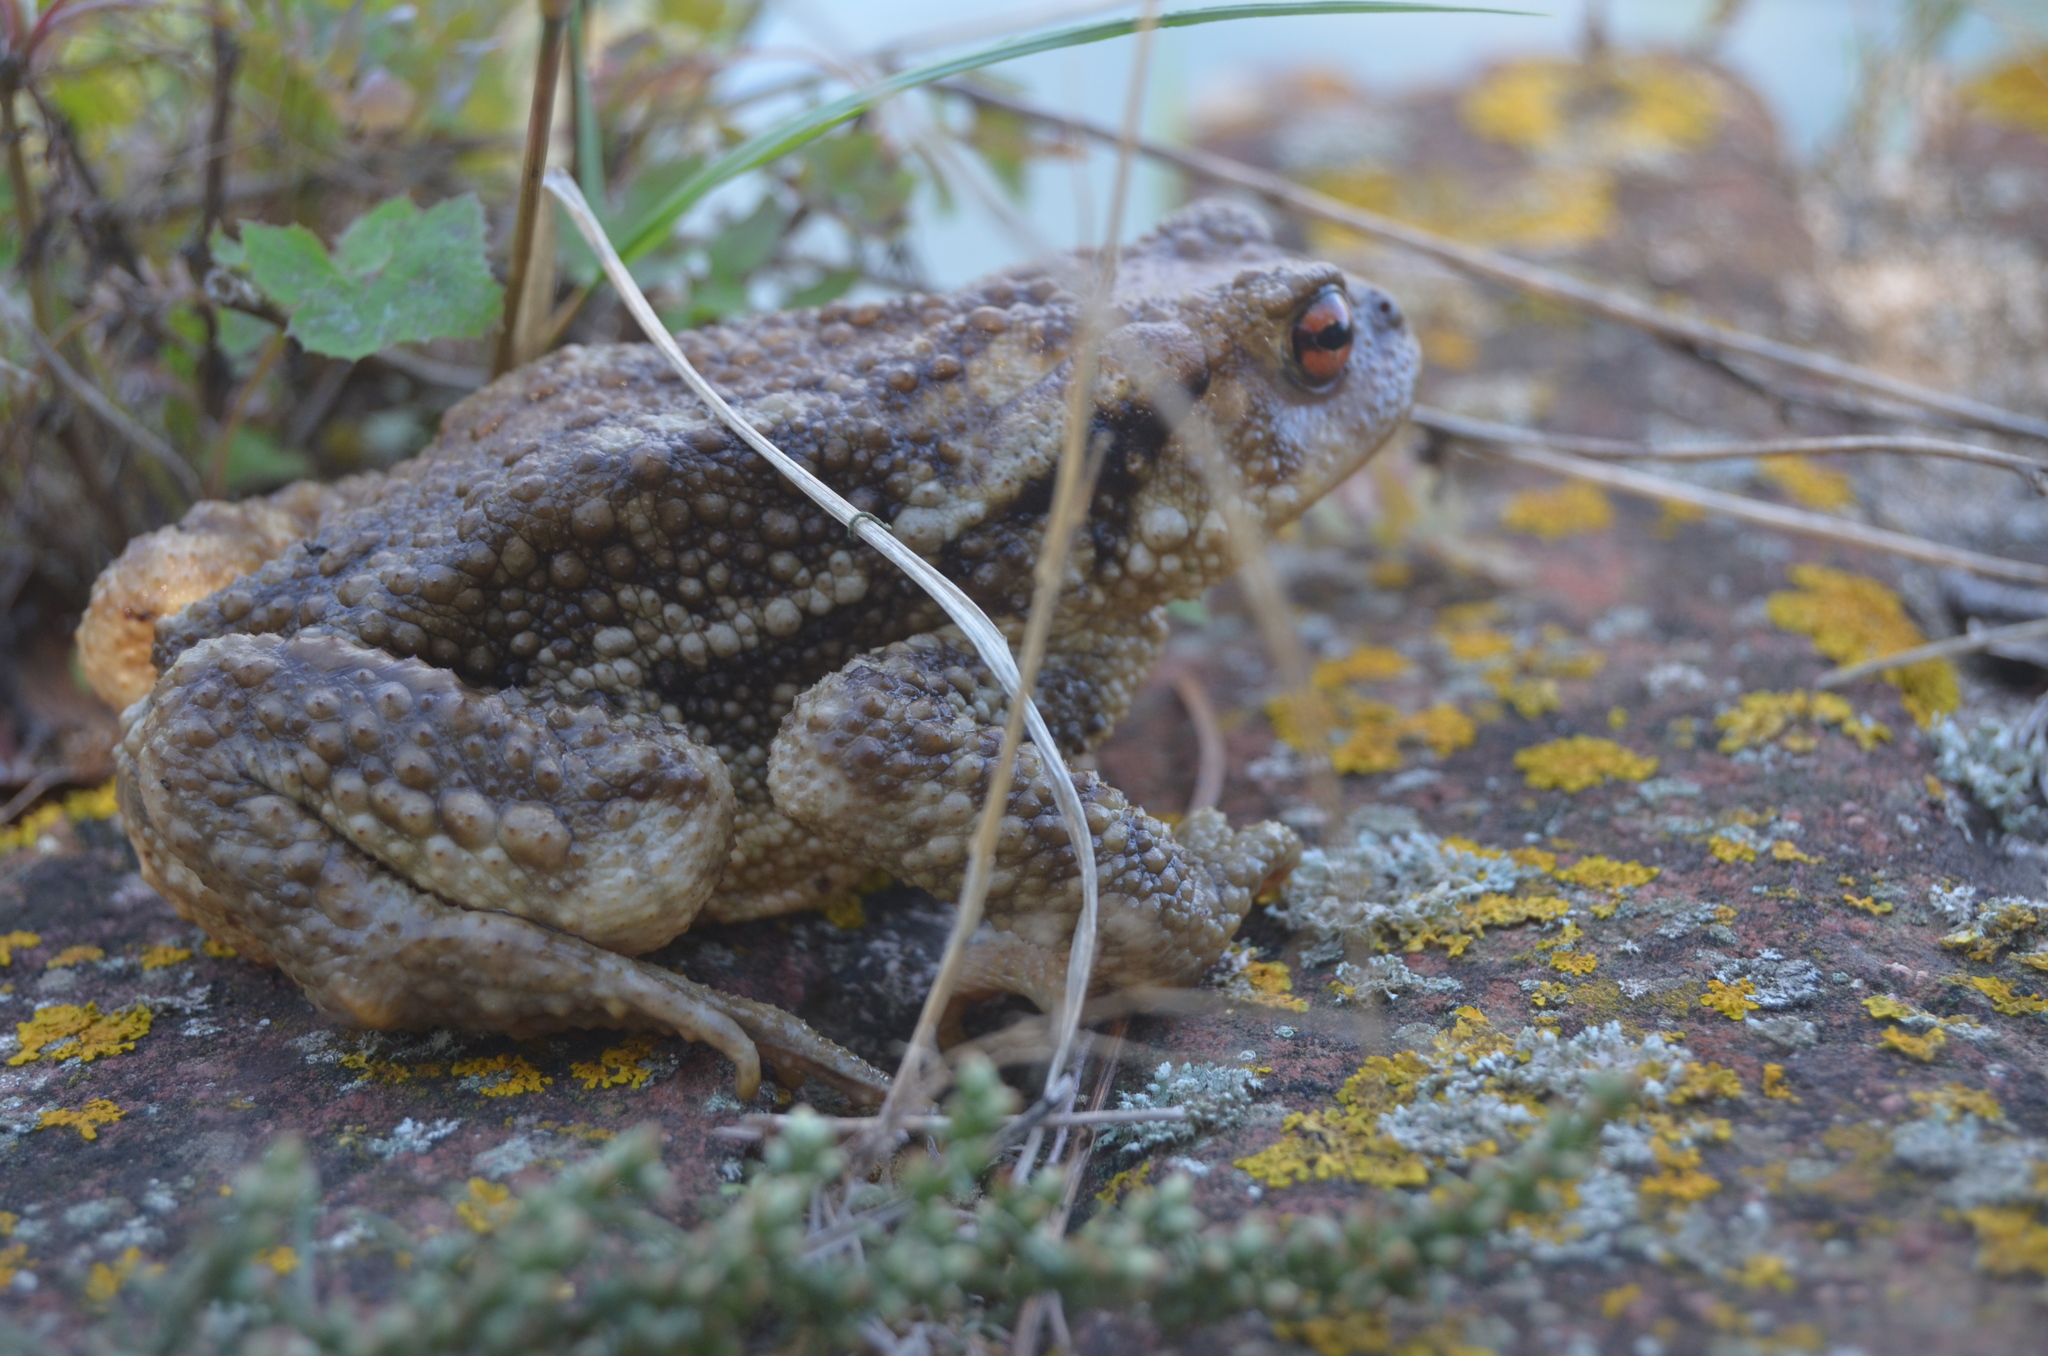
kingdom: Animalia
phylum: Chordata
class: Amphibia
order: Anura
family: Bufonidae
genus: Bufo
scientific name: Bufo spinosus
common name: Western common toad
